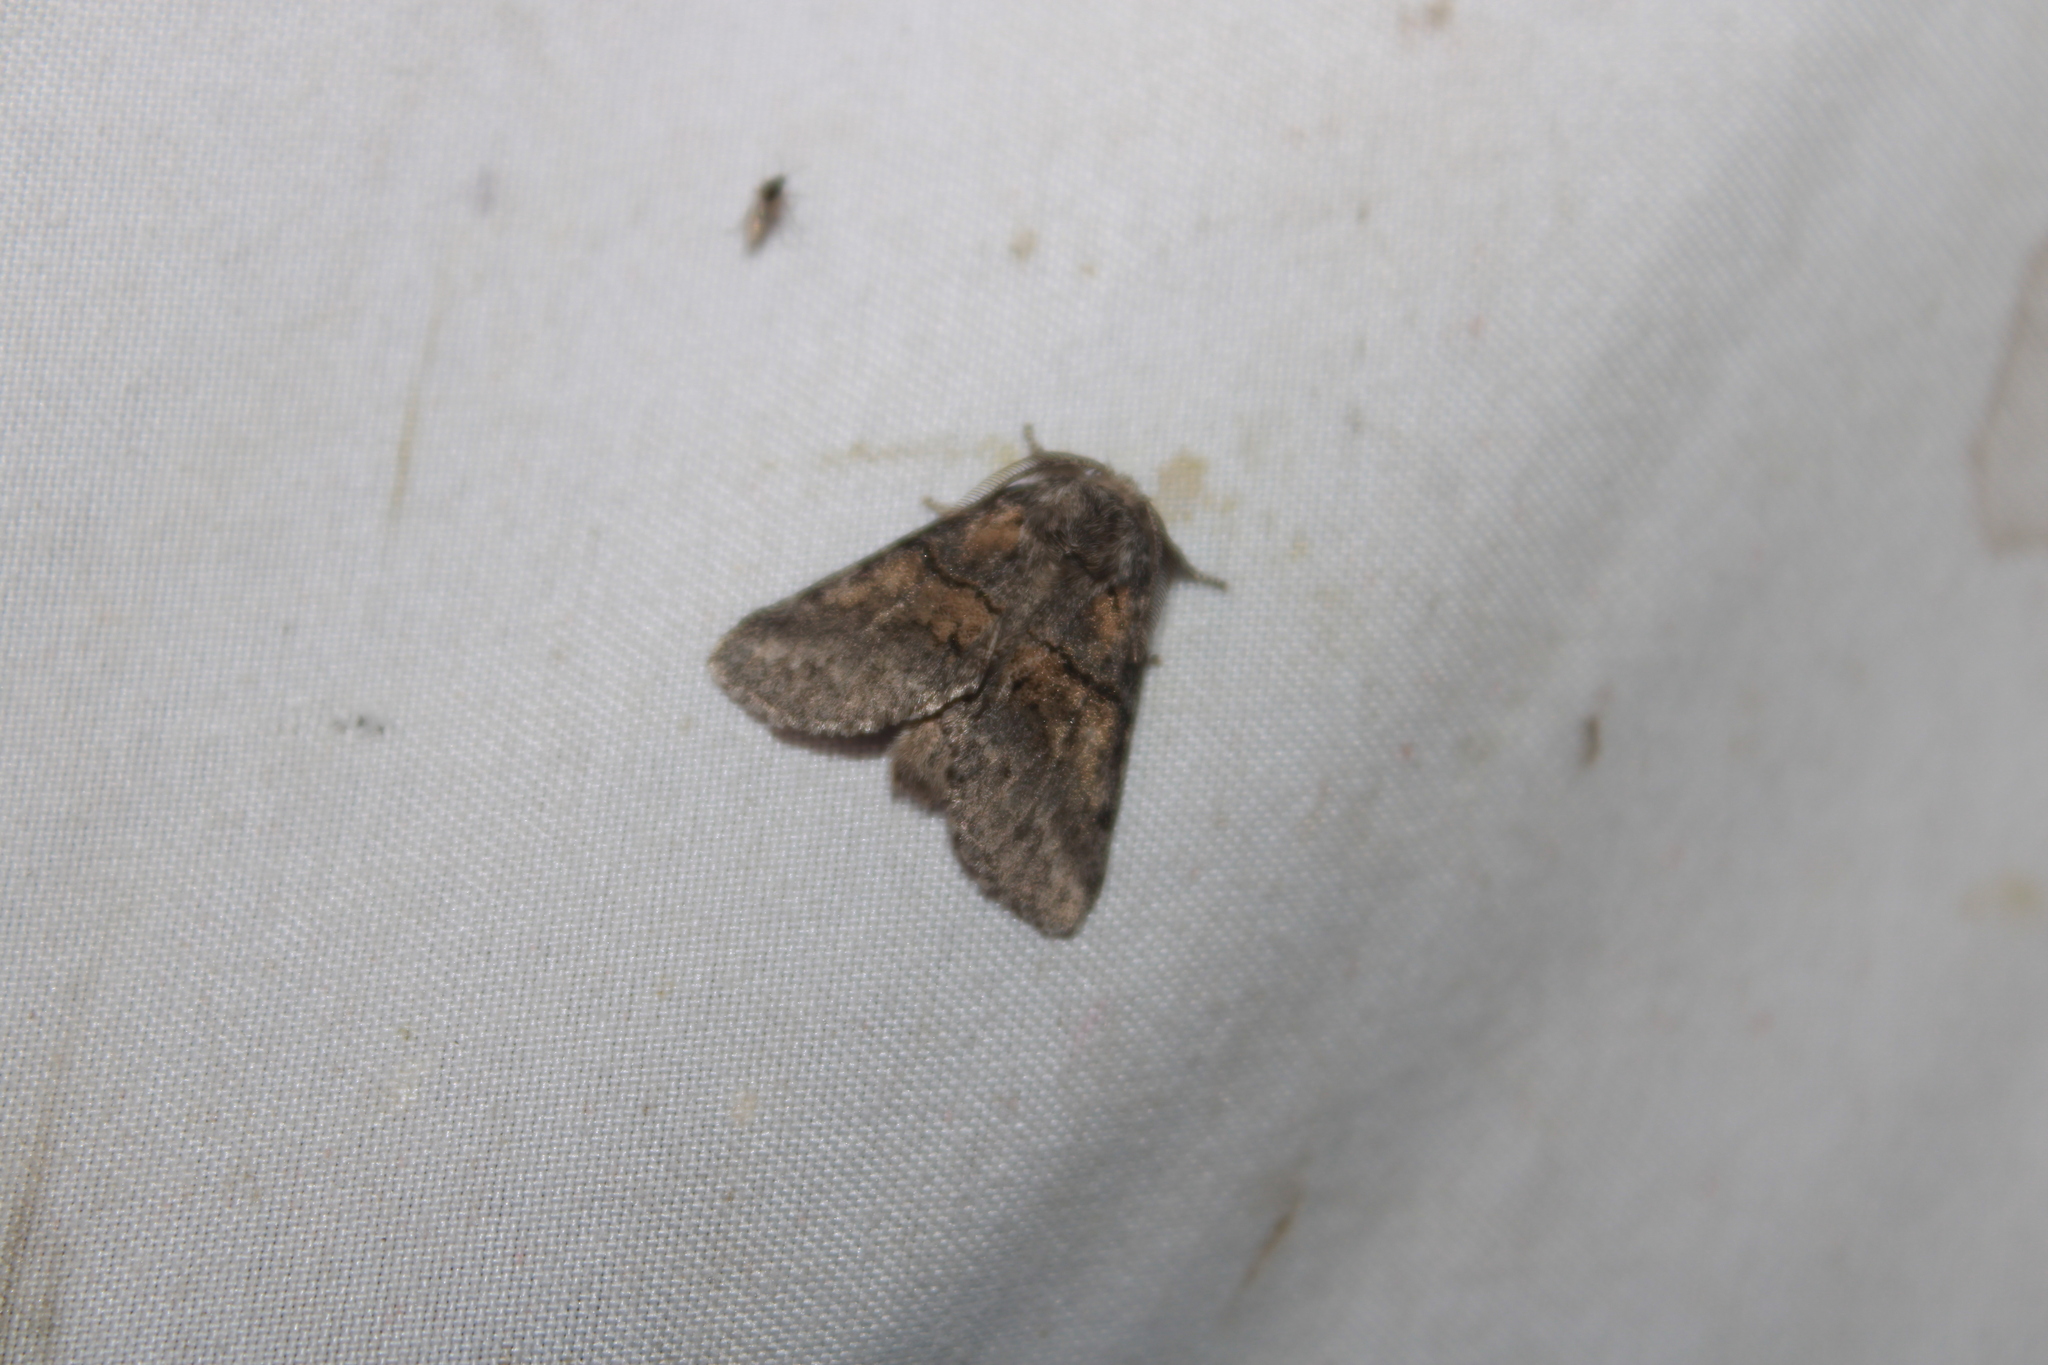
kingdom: Animalia
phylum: Arthropoda
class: Insecta
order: Lepidoptera
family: Notodontidae
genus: Gluphisia
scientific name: Gluphisia septentrionis
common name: Common gluphisia
